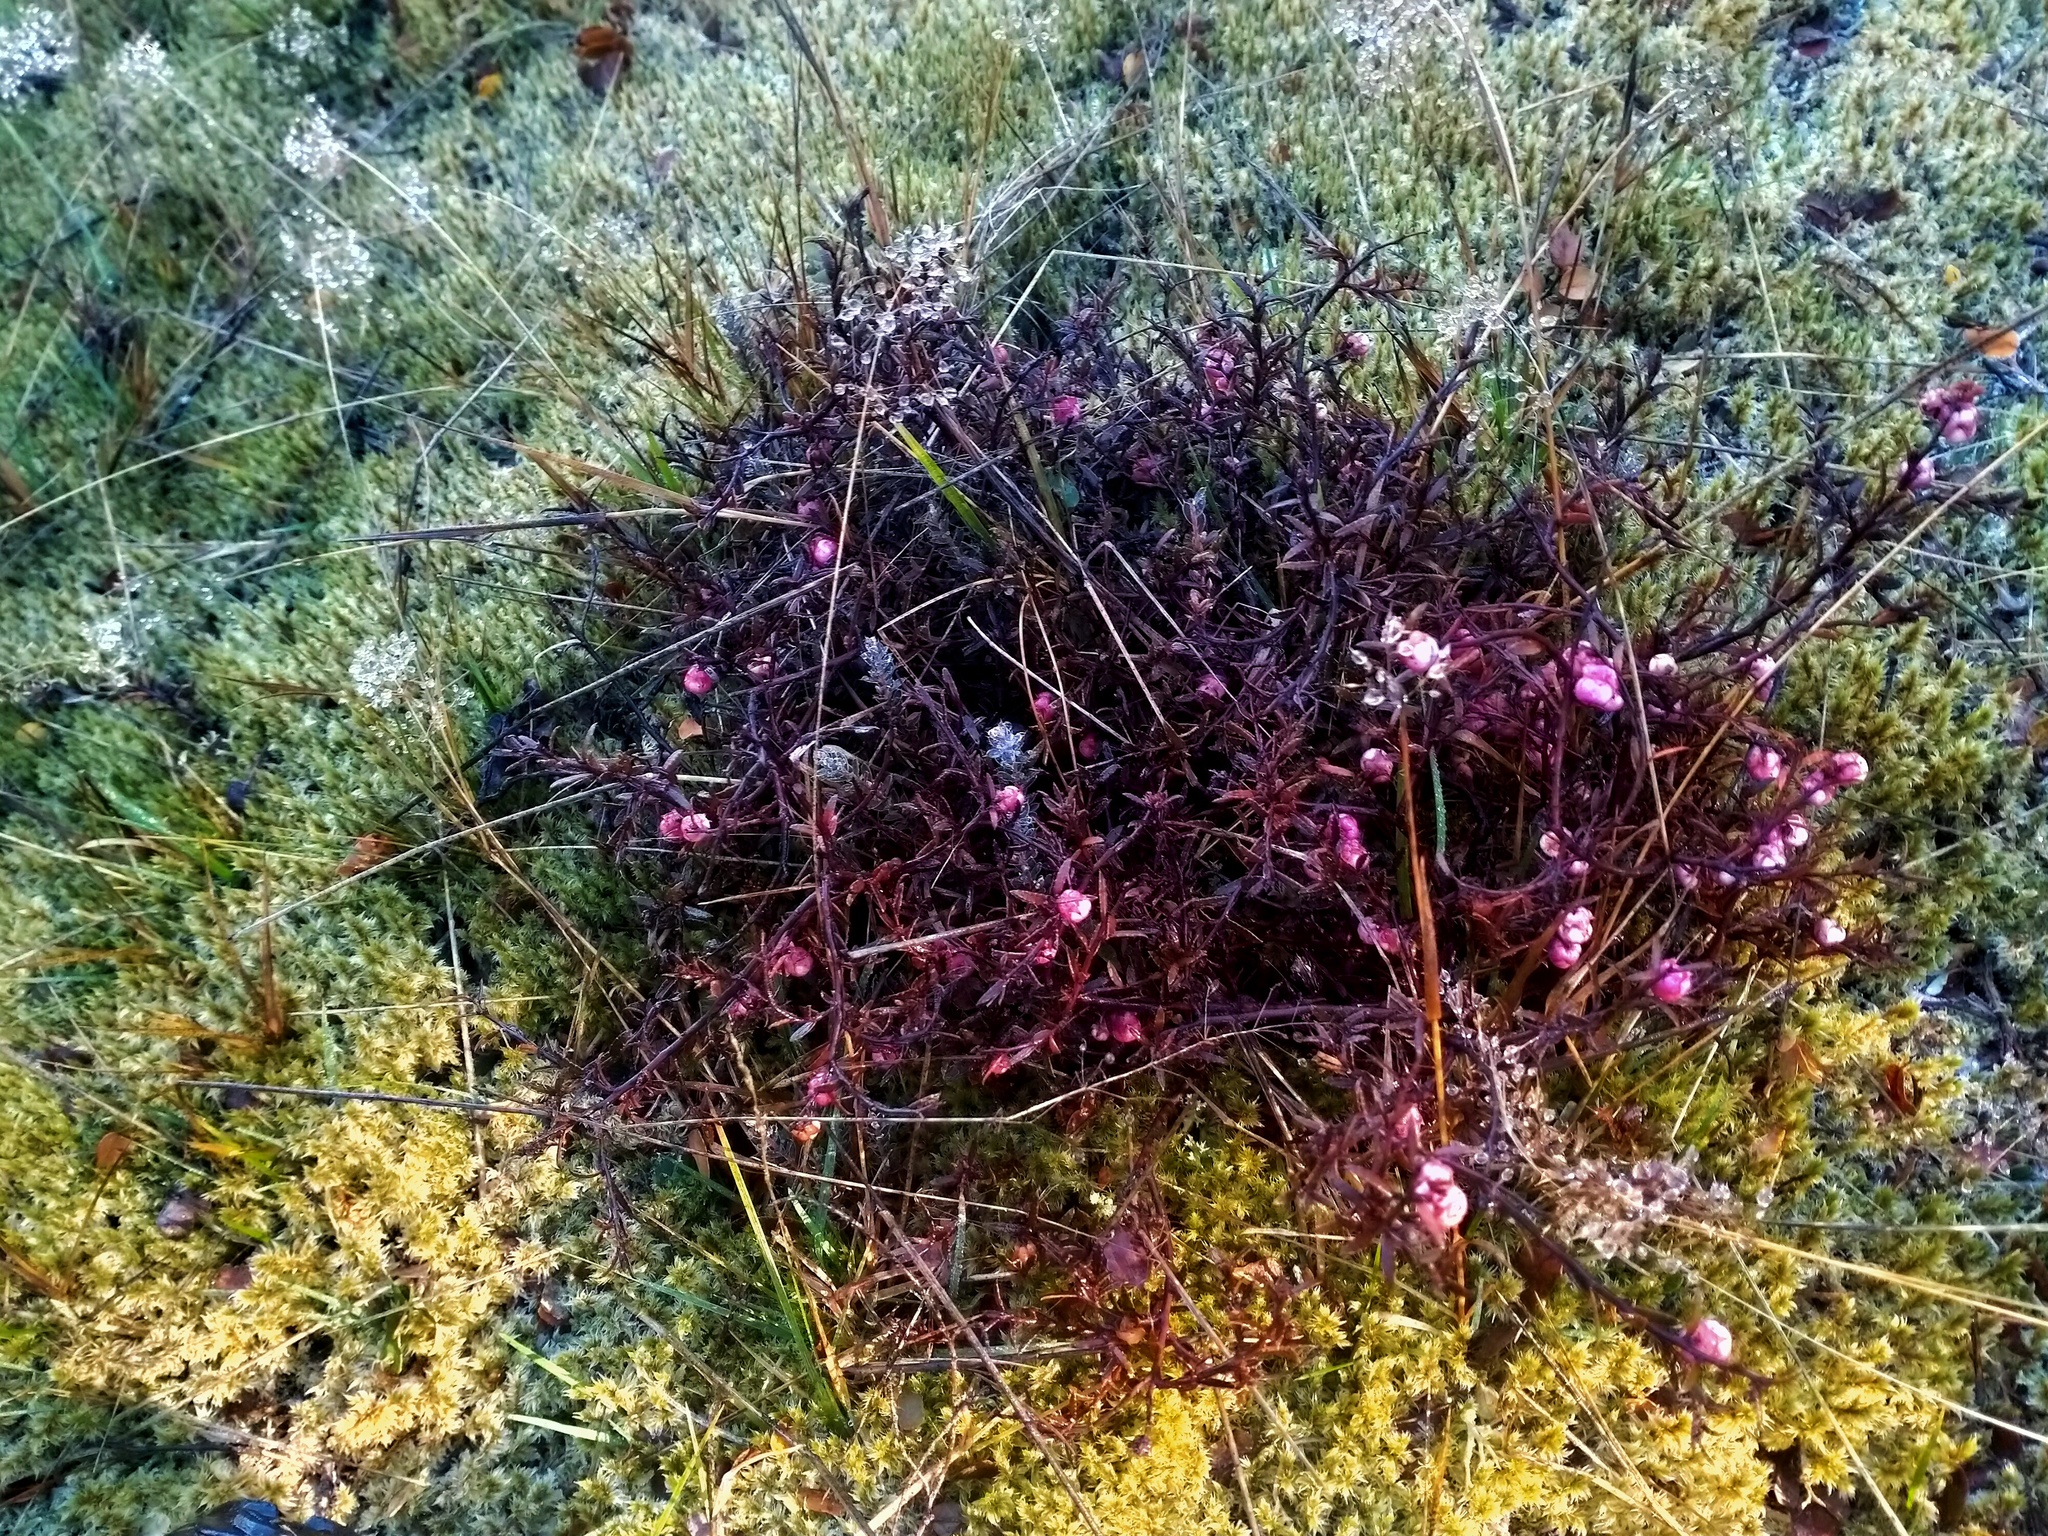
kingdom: Plantae
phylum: Tracheophyta
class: Magnoliopsida
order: Ericales
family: Ericaceae
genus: Gaultheria
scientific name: Gaultheria macrostigma
